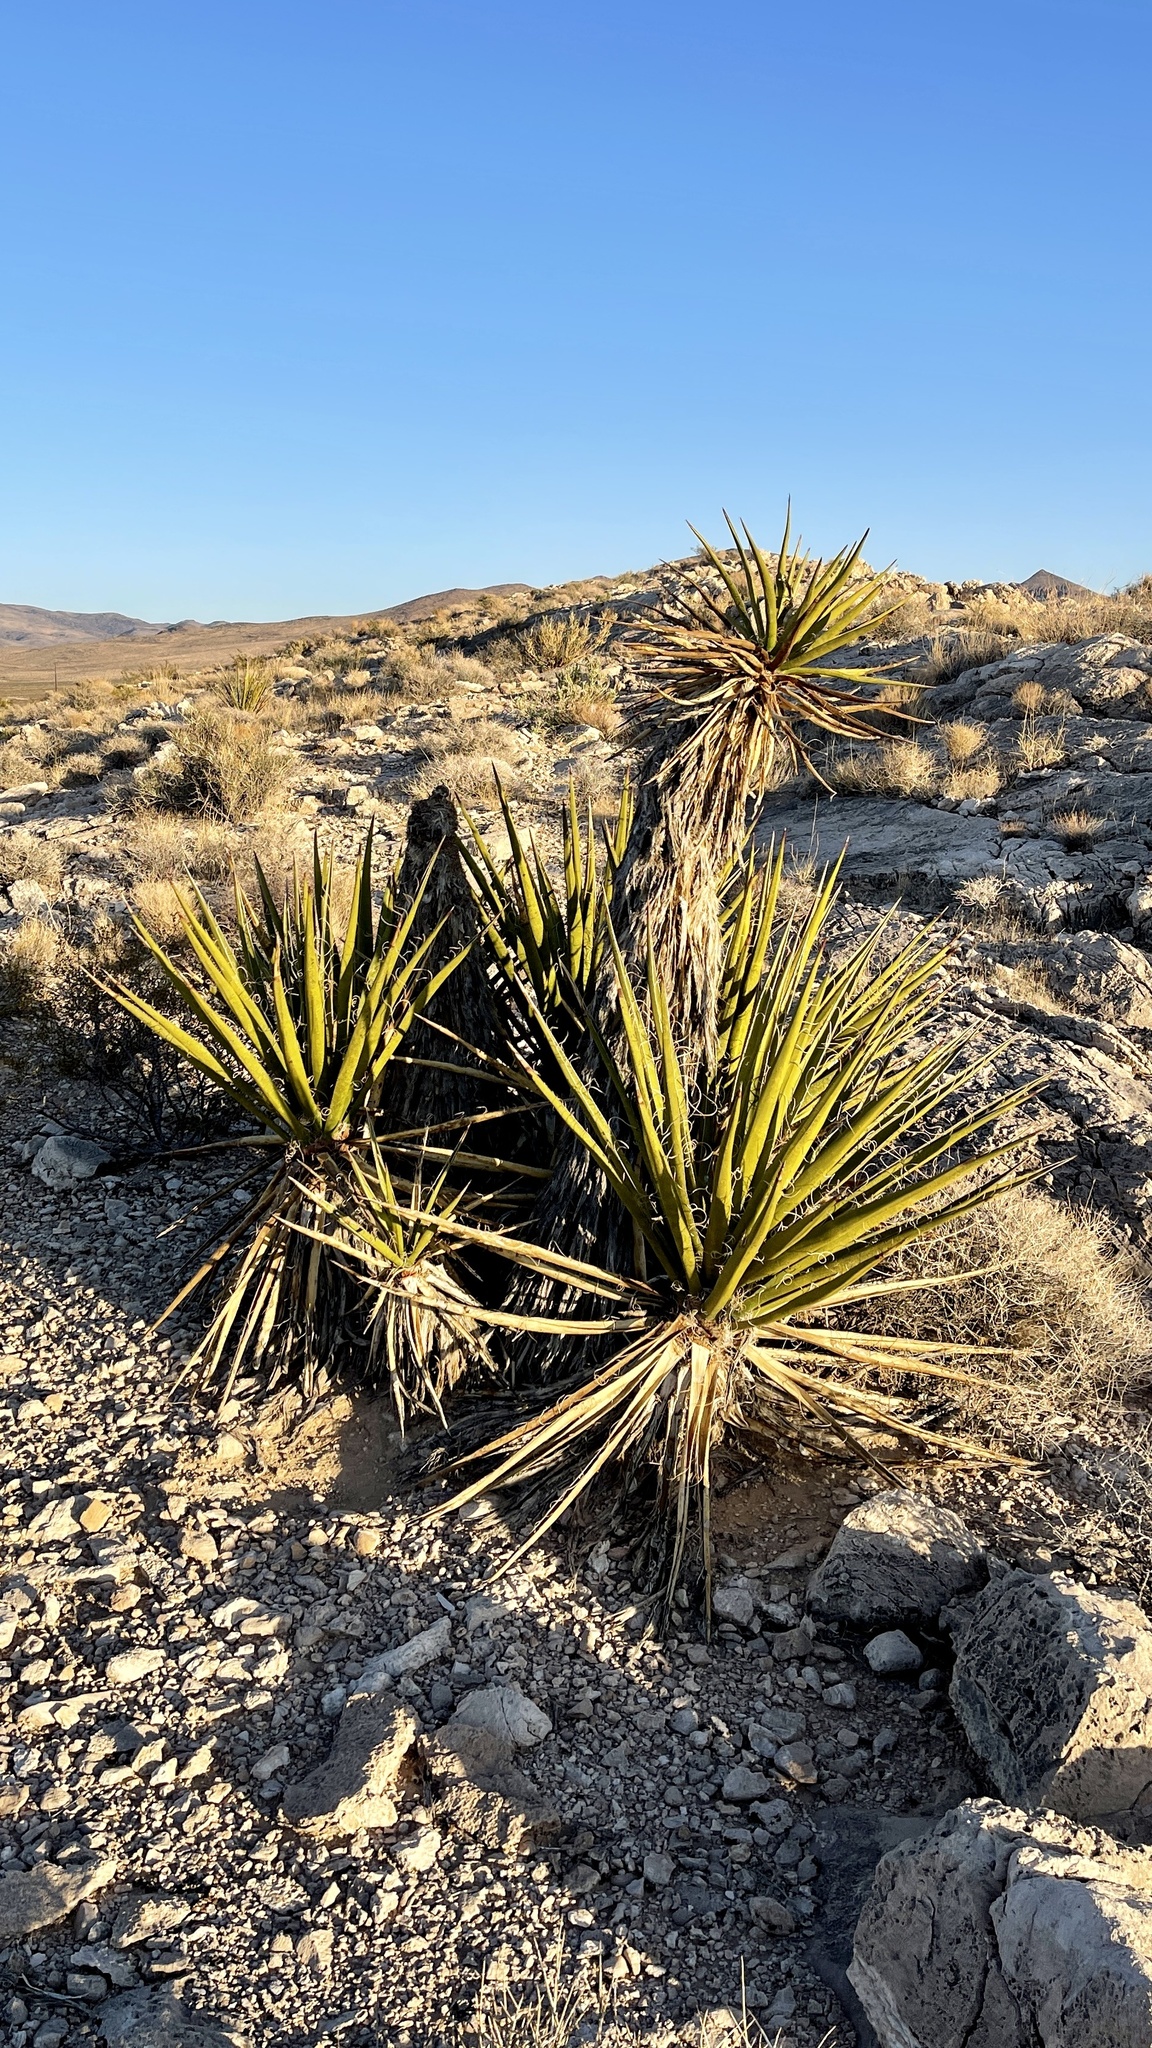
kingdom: Plantae
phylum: Tracheophyta
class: Liliopsida
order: Asparagales
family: Asparagaceae
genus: Yucca
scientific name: Yucca schidigera
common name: Mojave yucca
